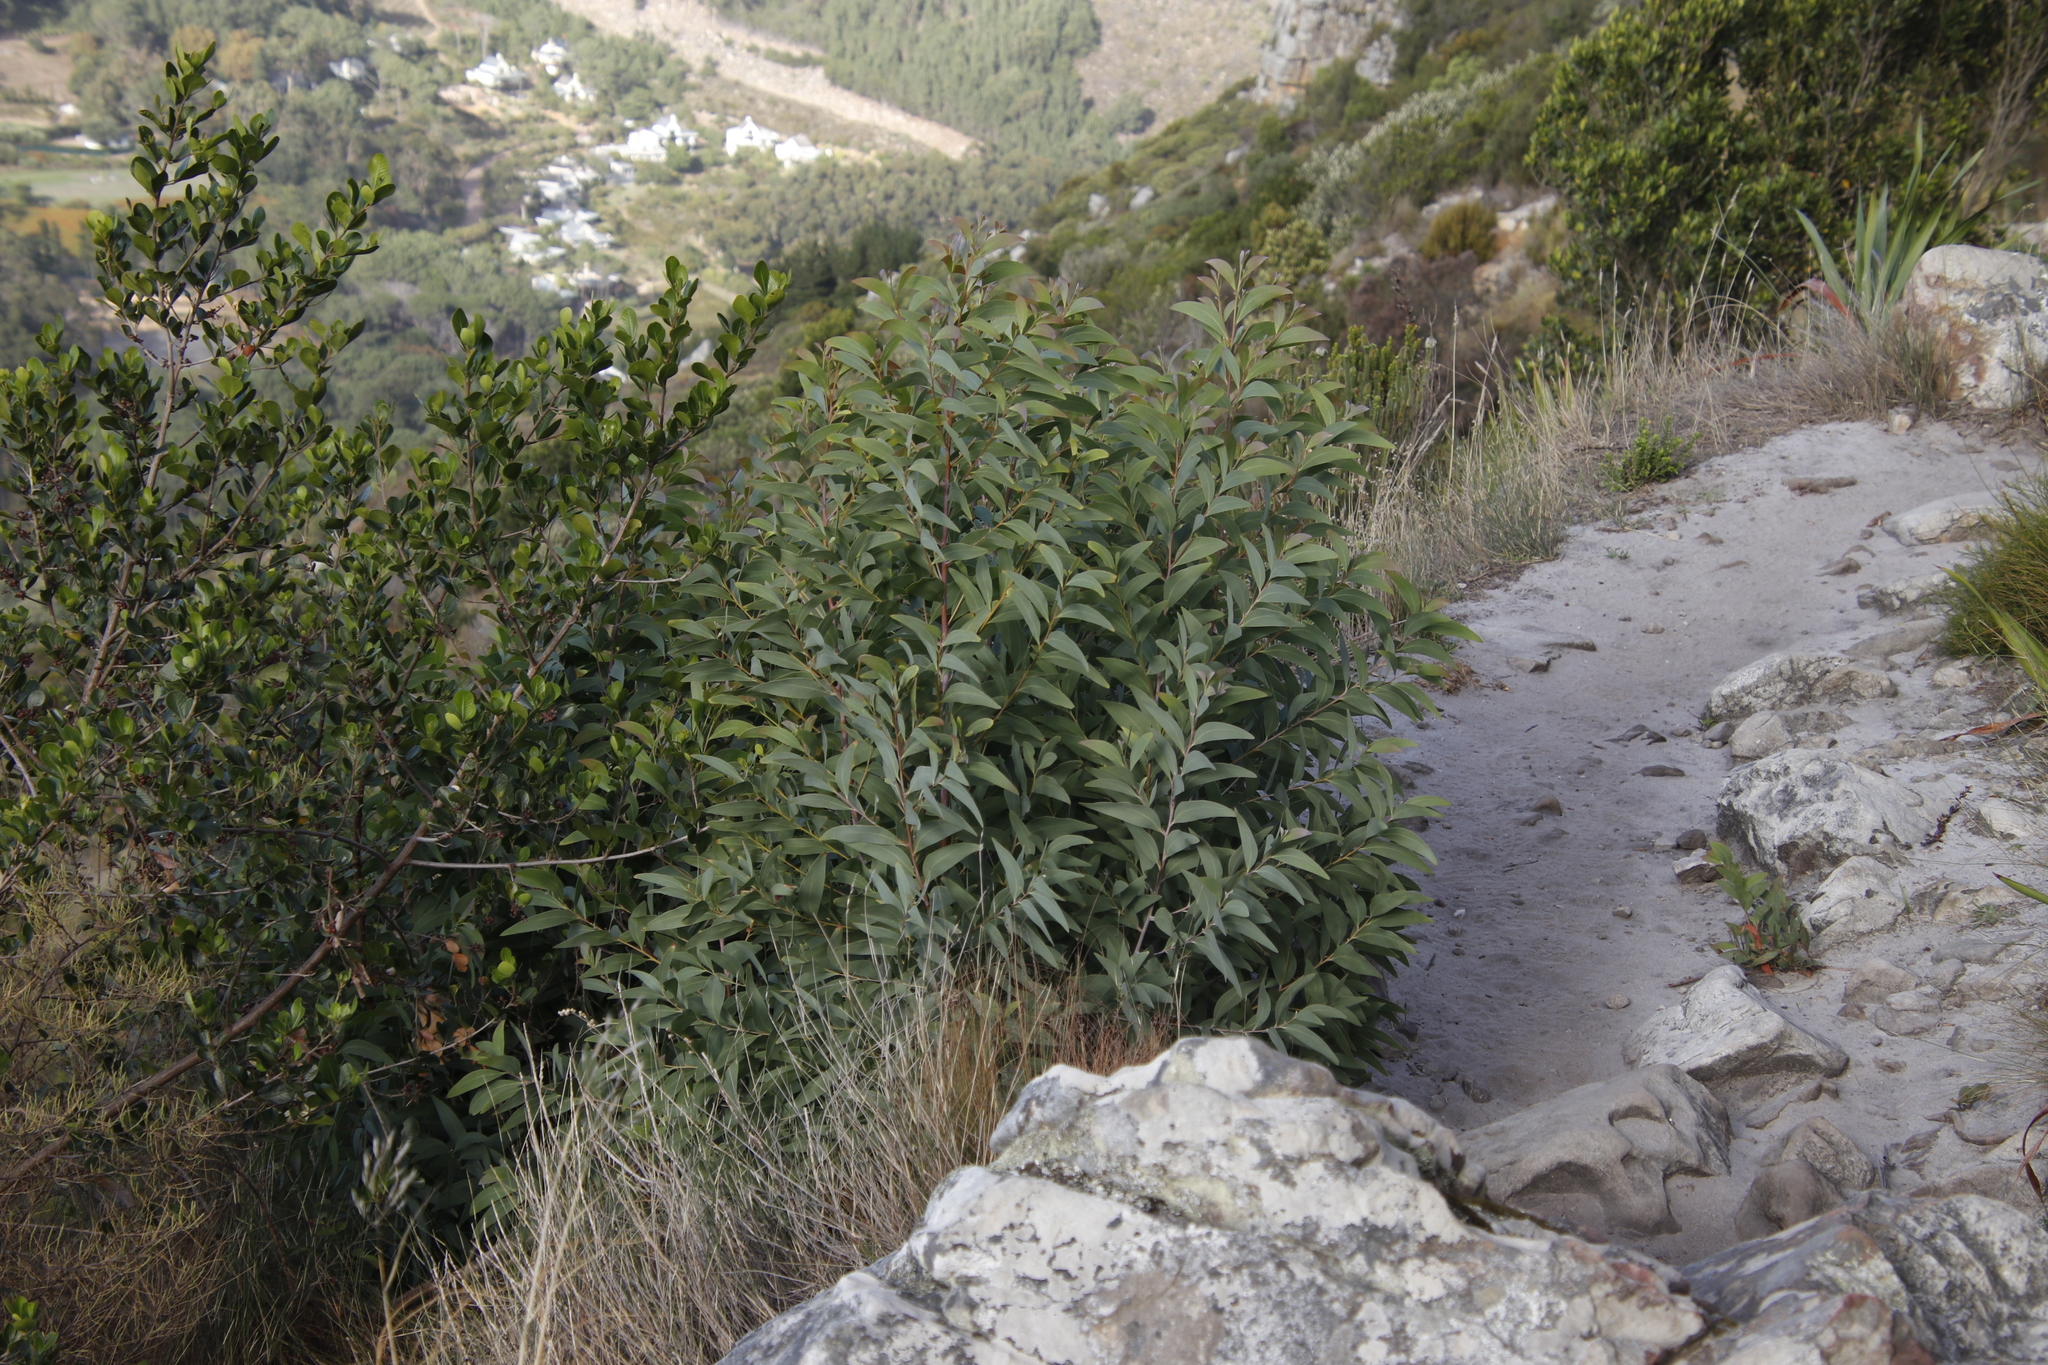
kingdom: Plantae
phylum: Tracheophyta
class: Magnoliopsida
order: Fabales
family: Fabaceae
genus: Acacia
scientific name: Acacia falciformis
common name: Tanning wattle
